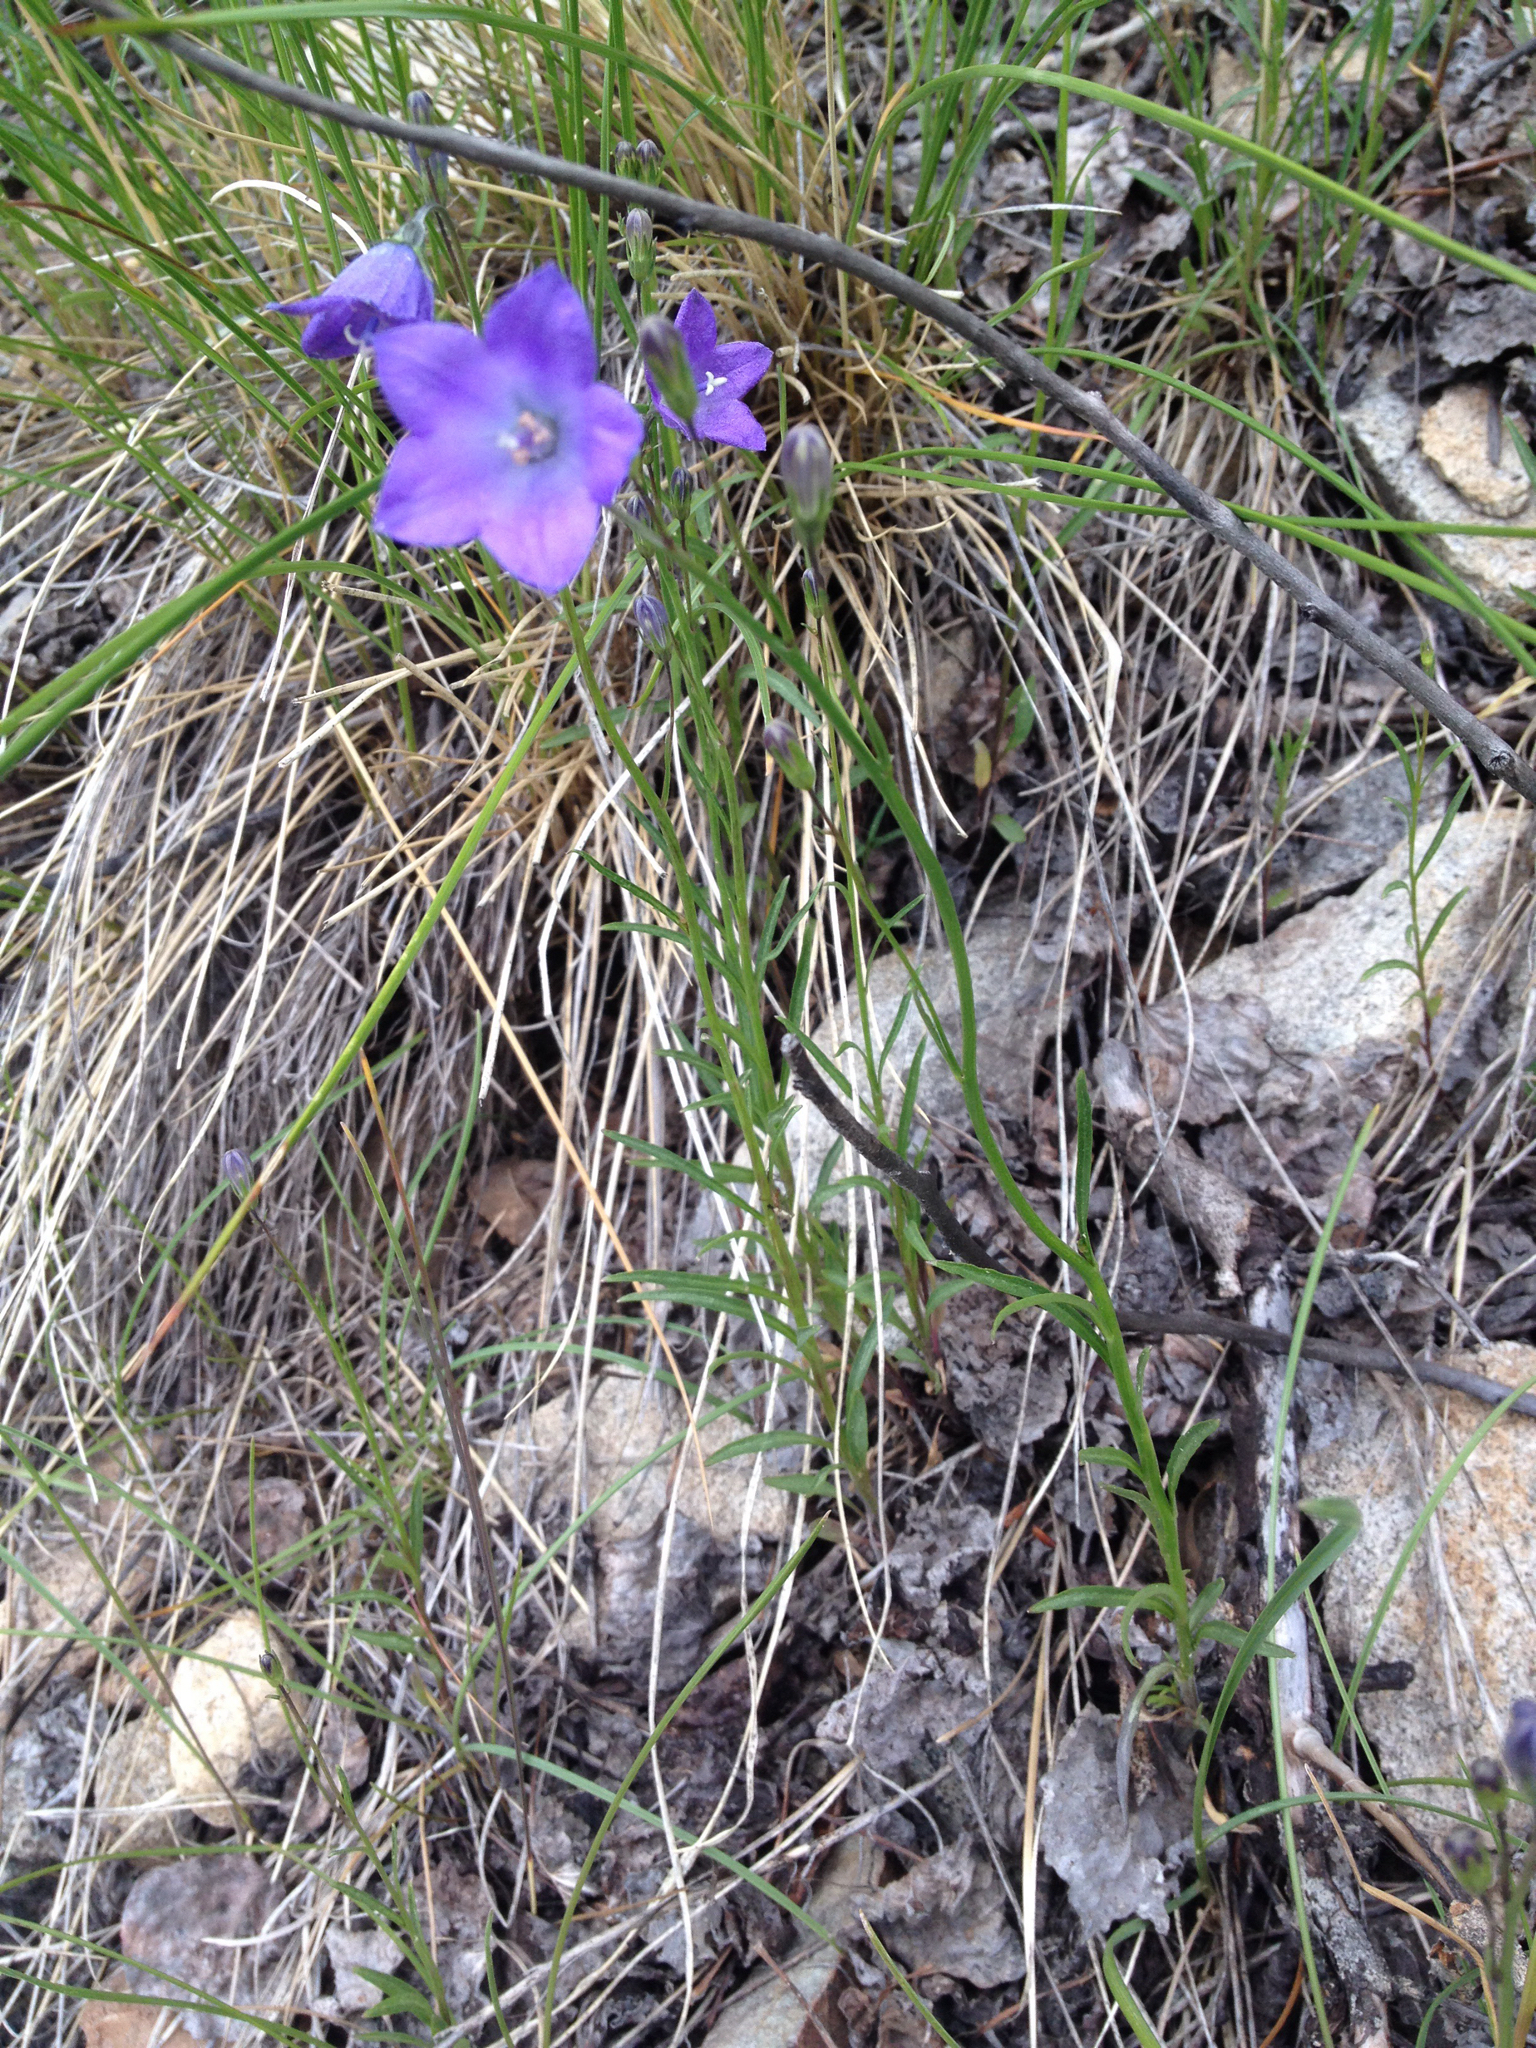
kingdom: Plantae
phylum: Tracheophyta
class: Magnoliopsida
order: Asterales
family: Campanulaceae
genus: Campanula
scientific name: Campanula petiolata
